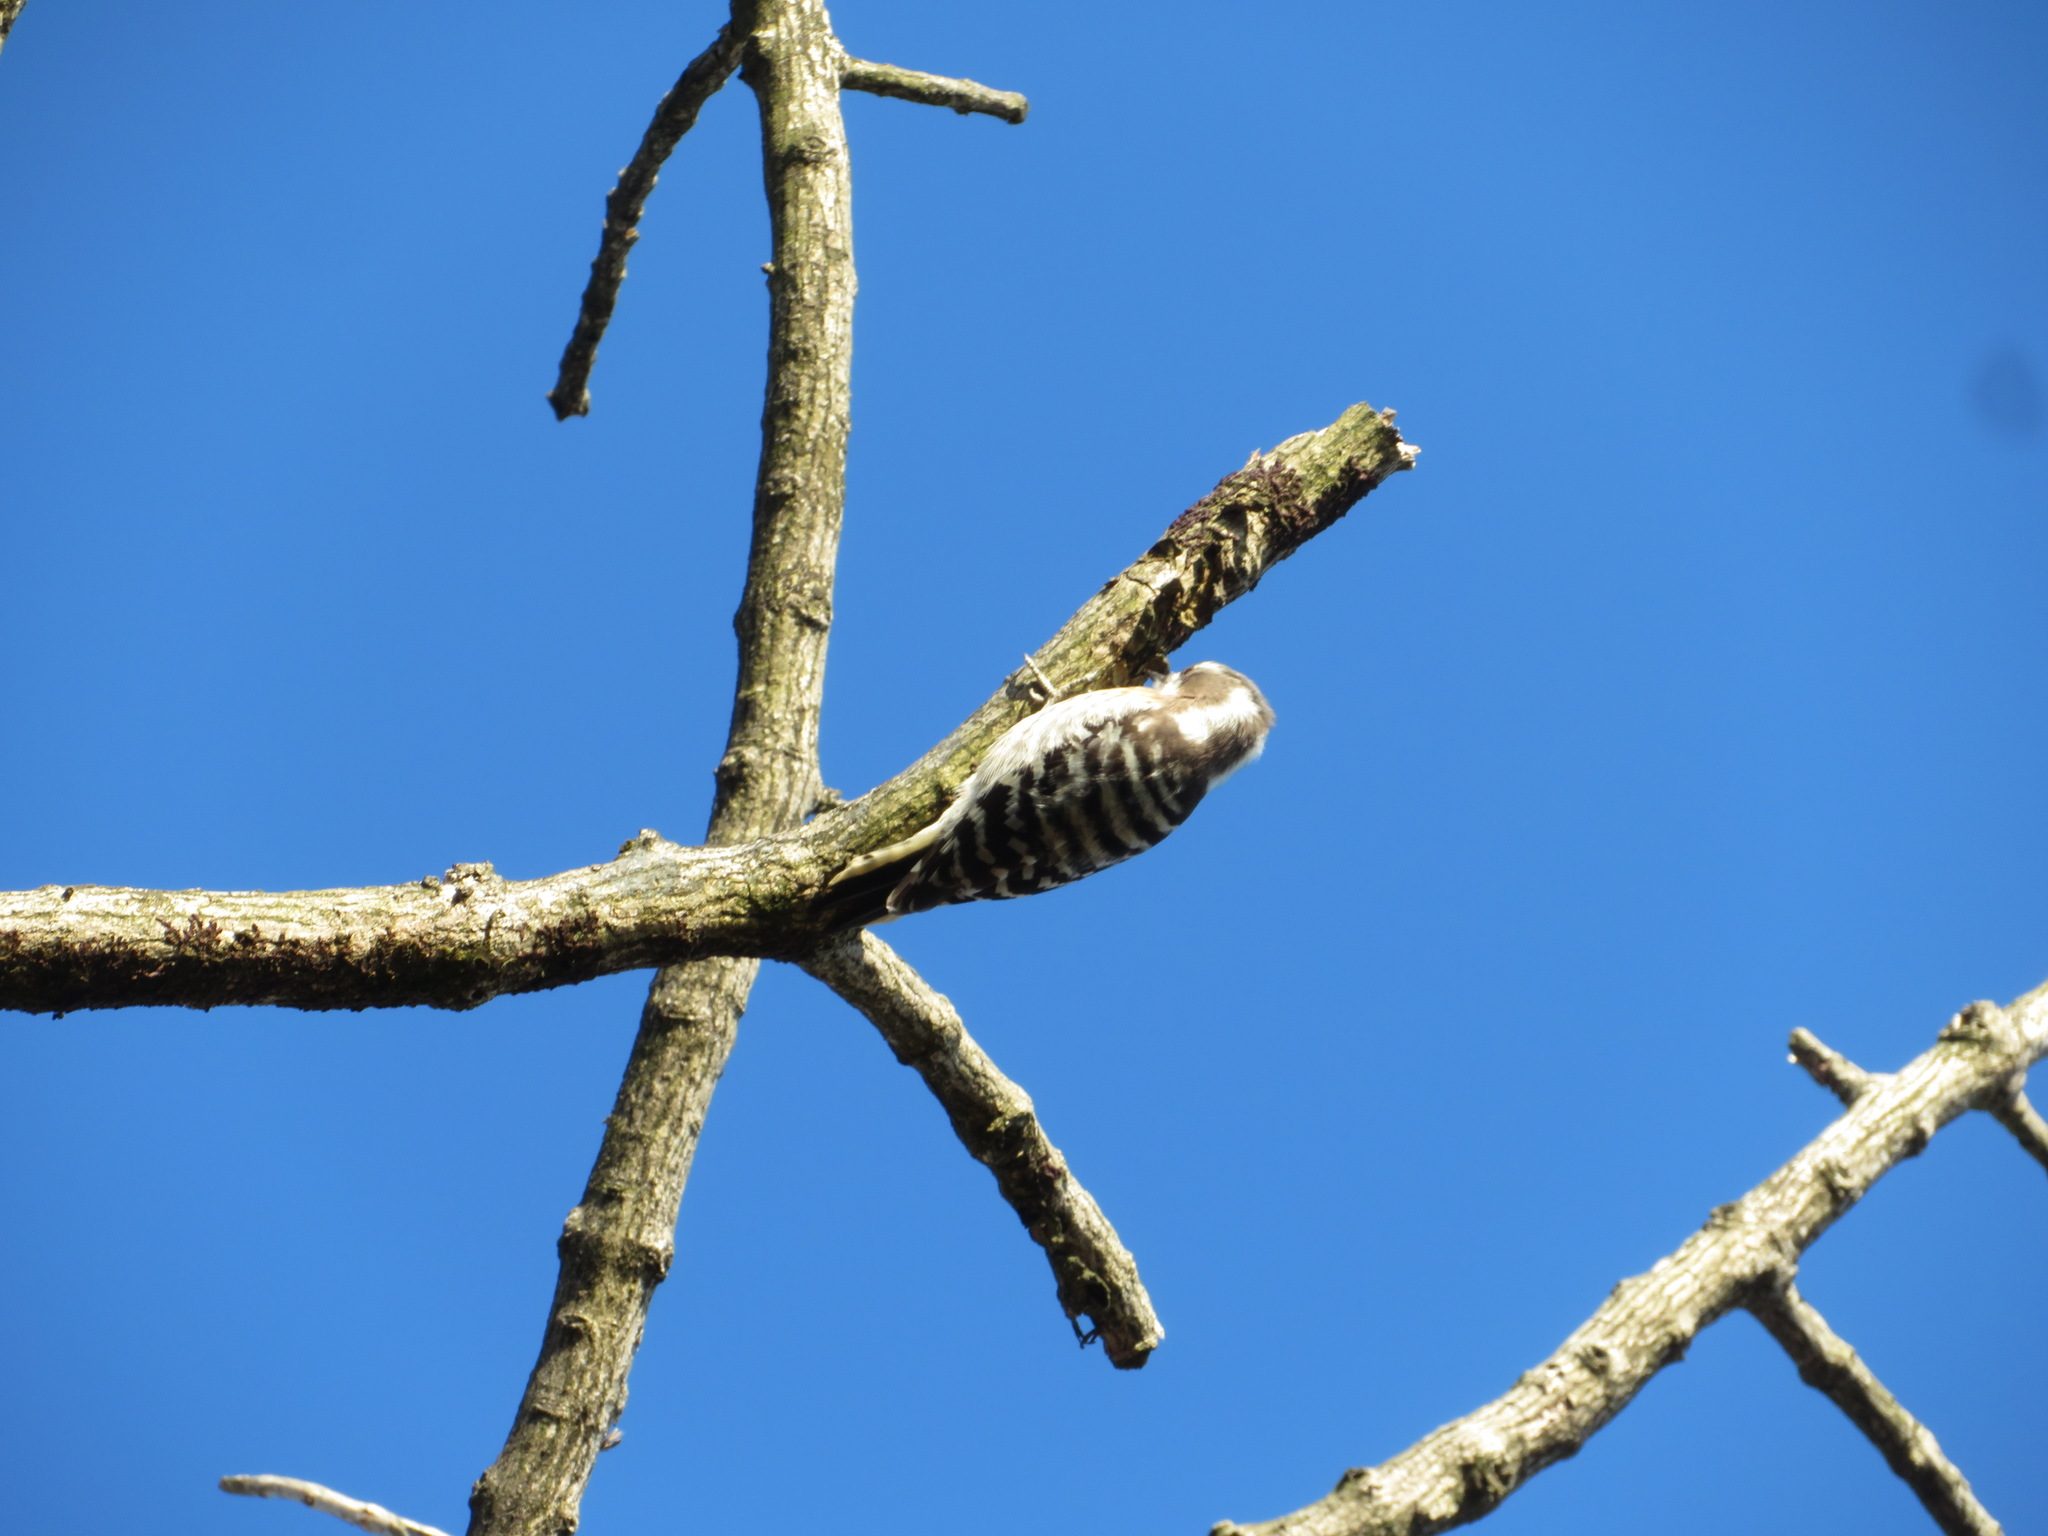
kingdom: Animalia
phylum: Chordata
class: Aves
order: Piciformes
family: Picidae
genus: Yungipicus
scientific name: Yungipicus kizuki
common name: Japanese pygmy woodpecker
